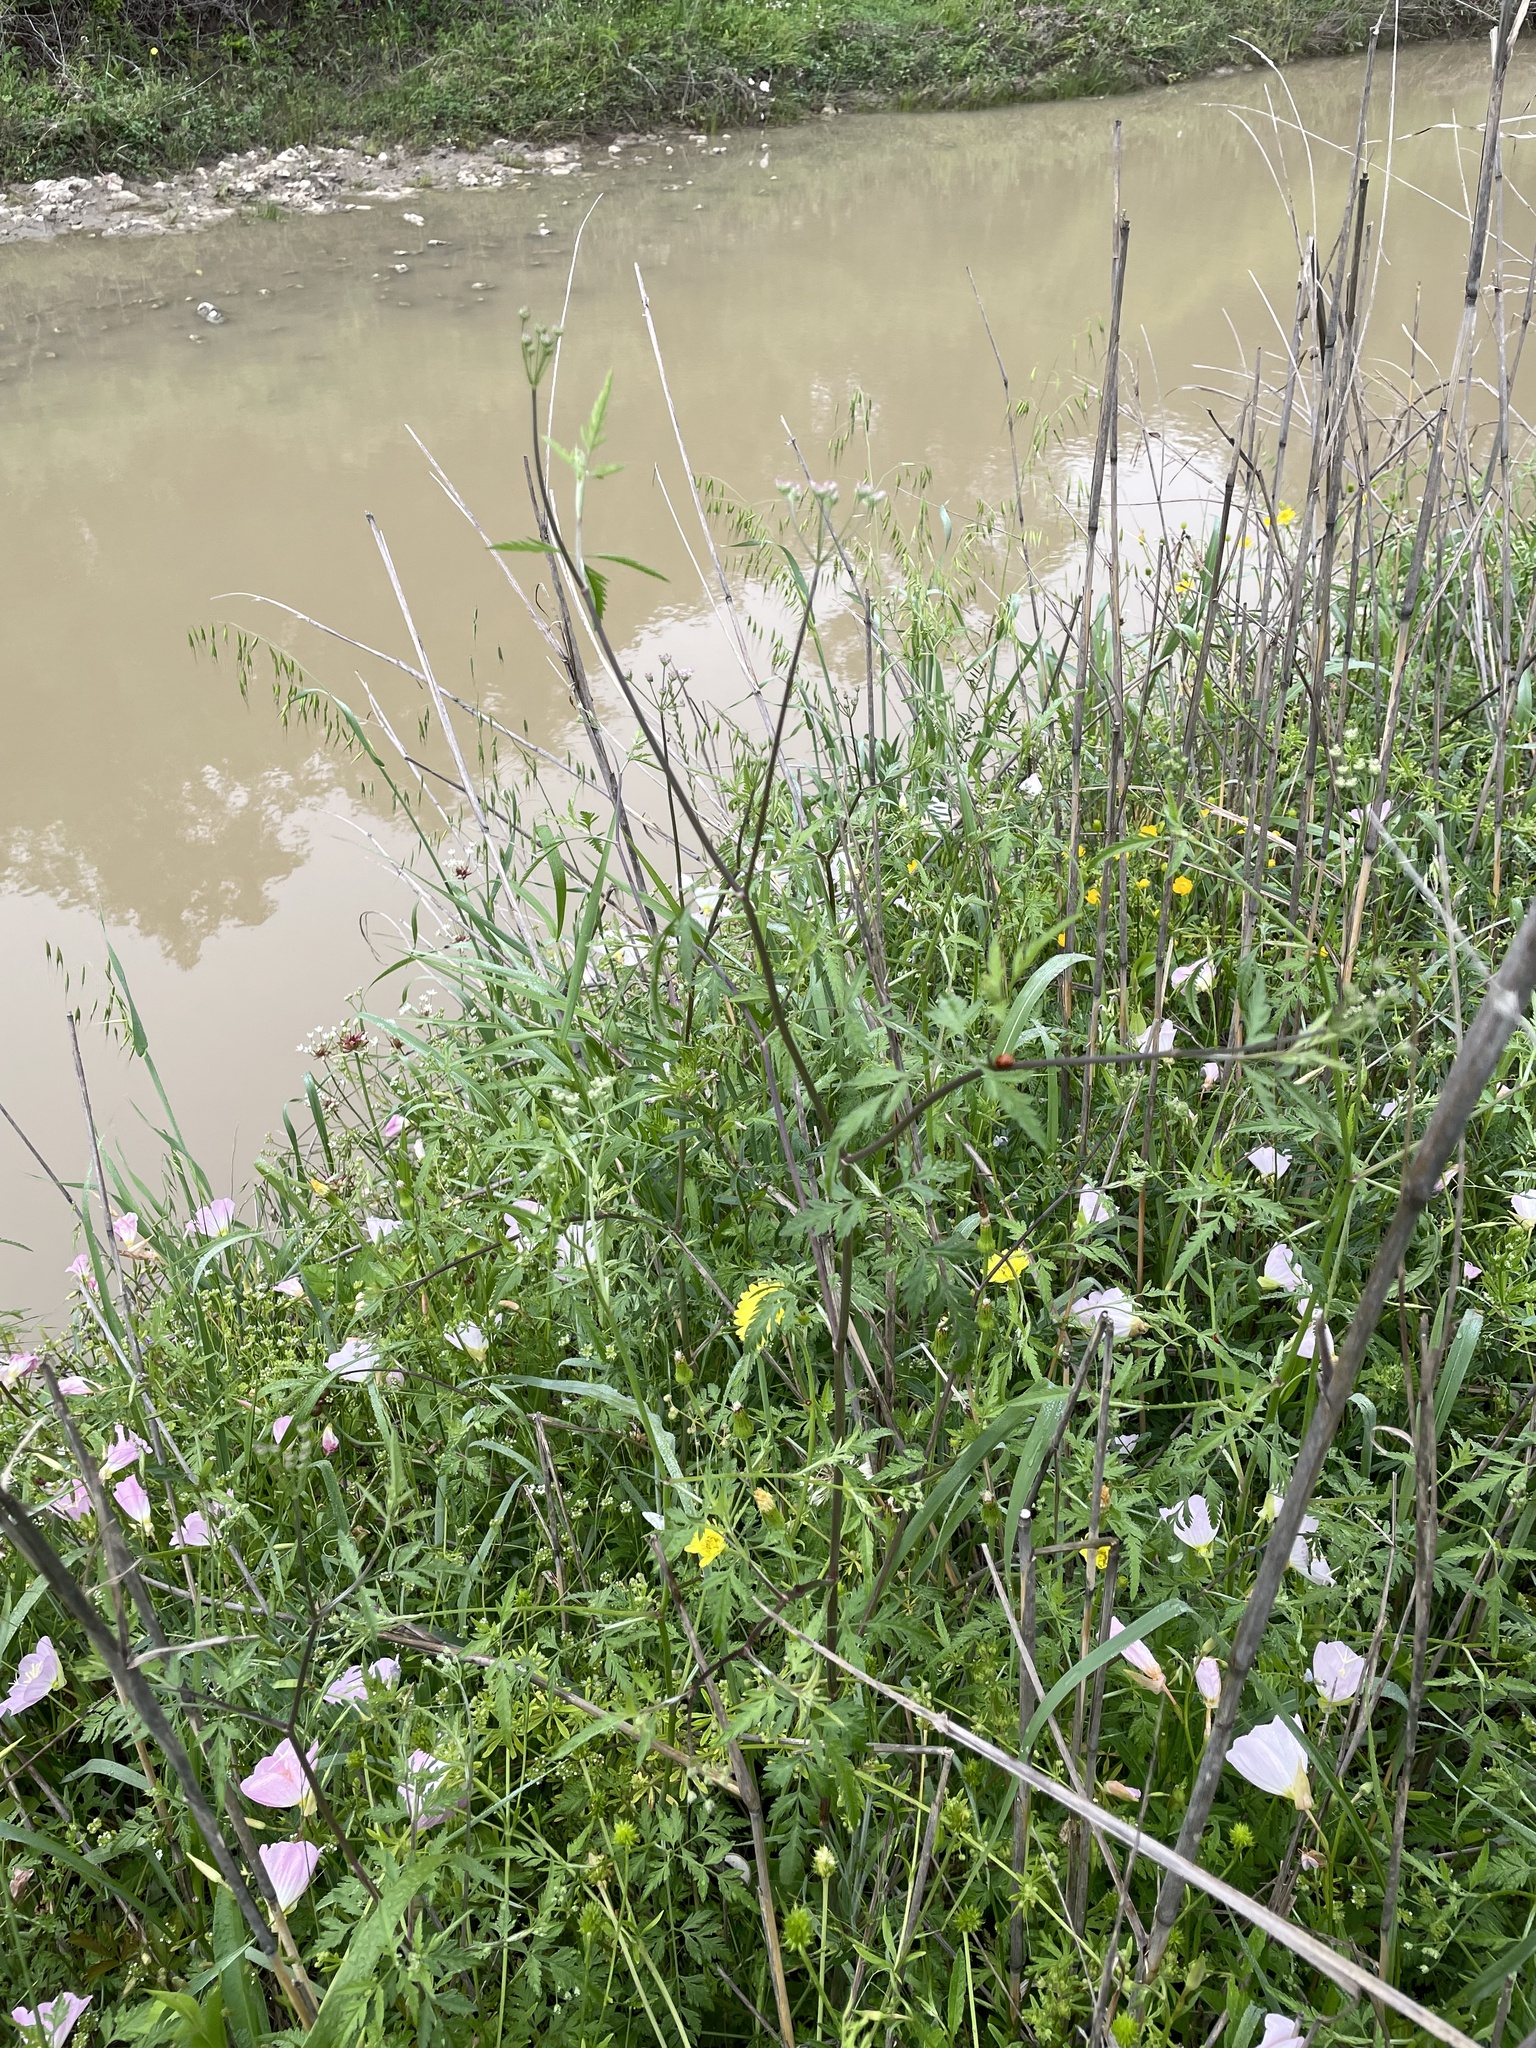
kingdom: Plantae
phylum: Tracheophyta
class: Magnoliopsida
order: Apiales
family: Apiaceae
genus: Torilis
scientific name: Torilis arvensis
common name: Spreading hedge-parsley
